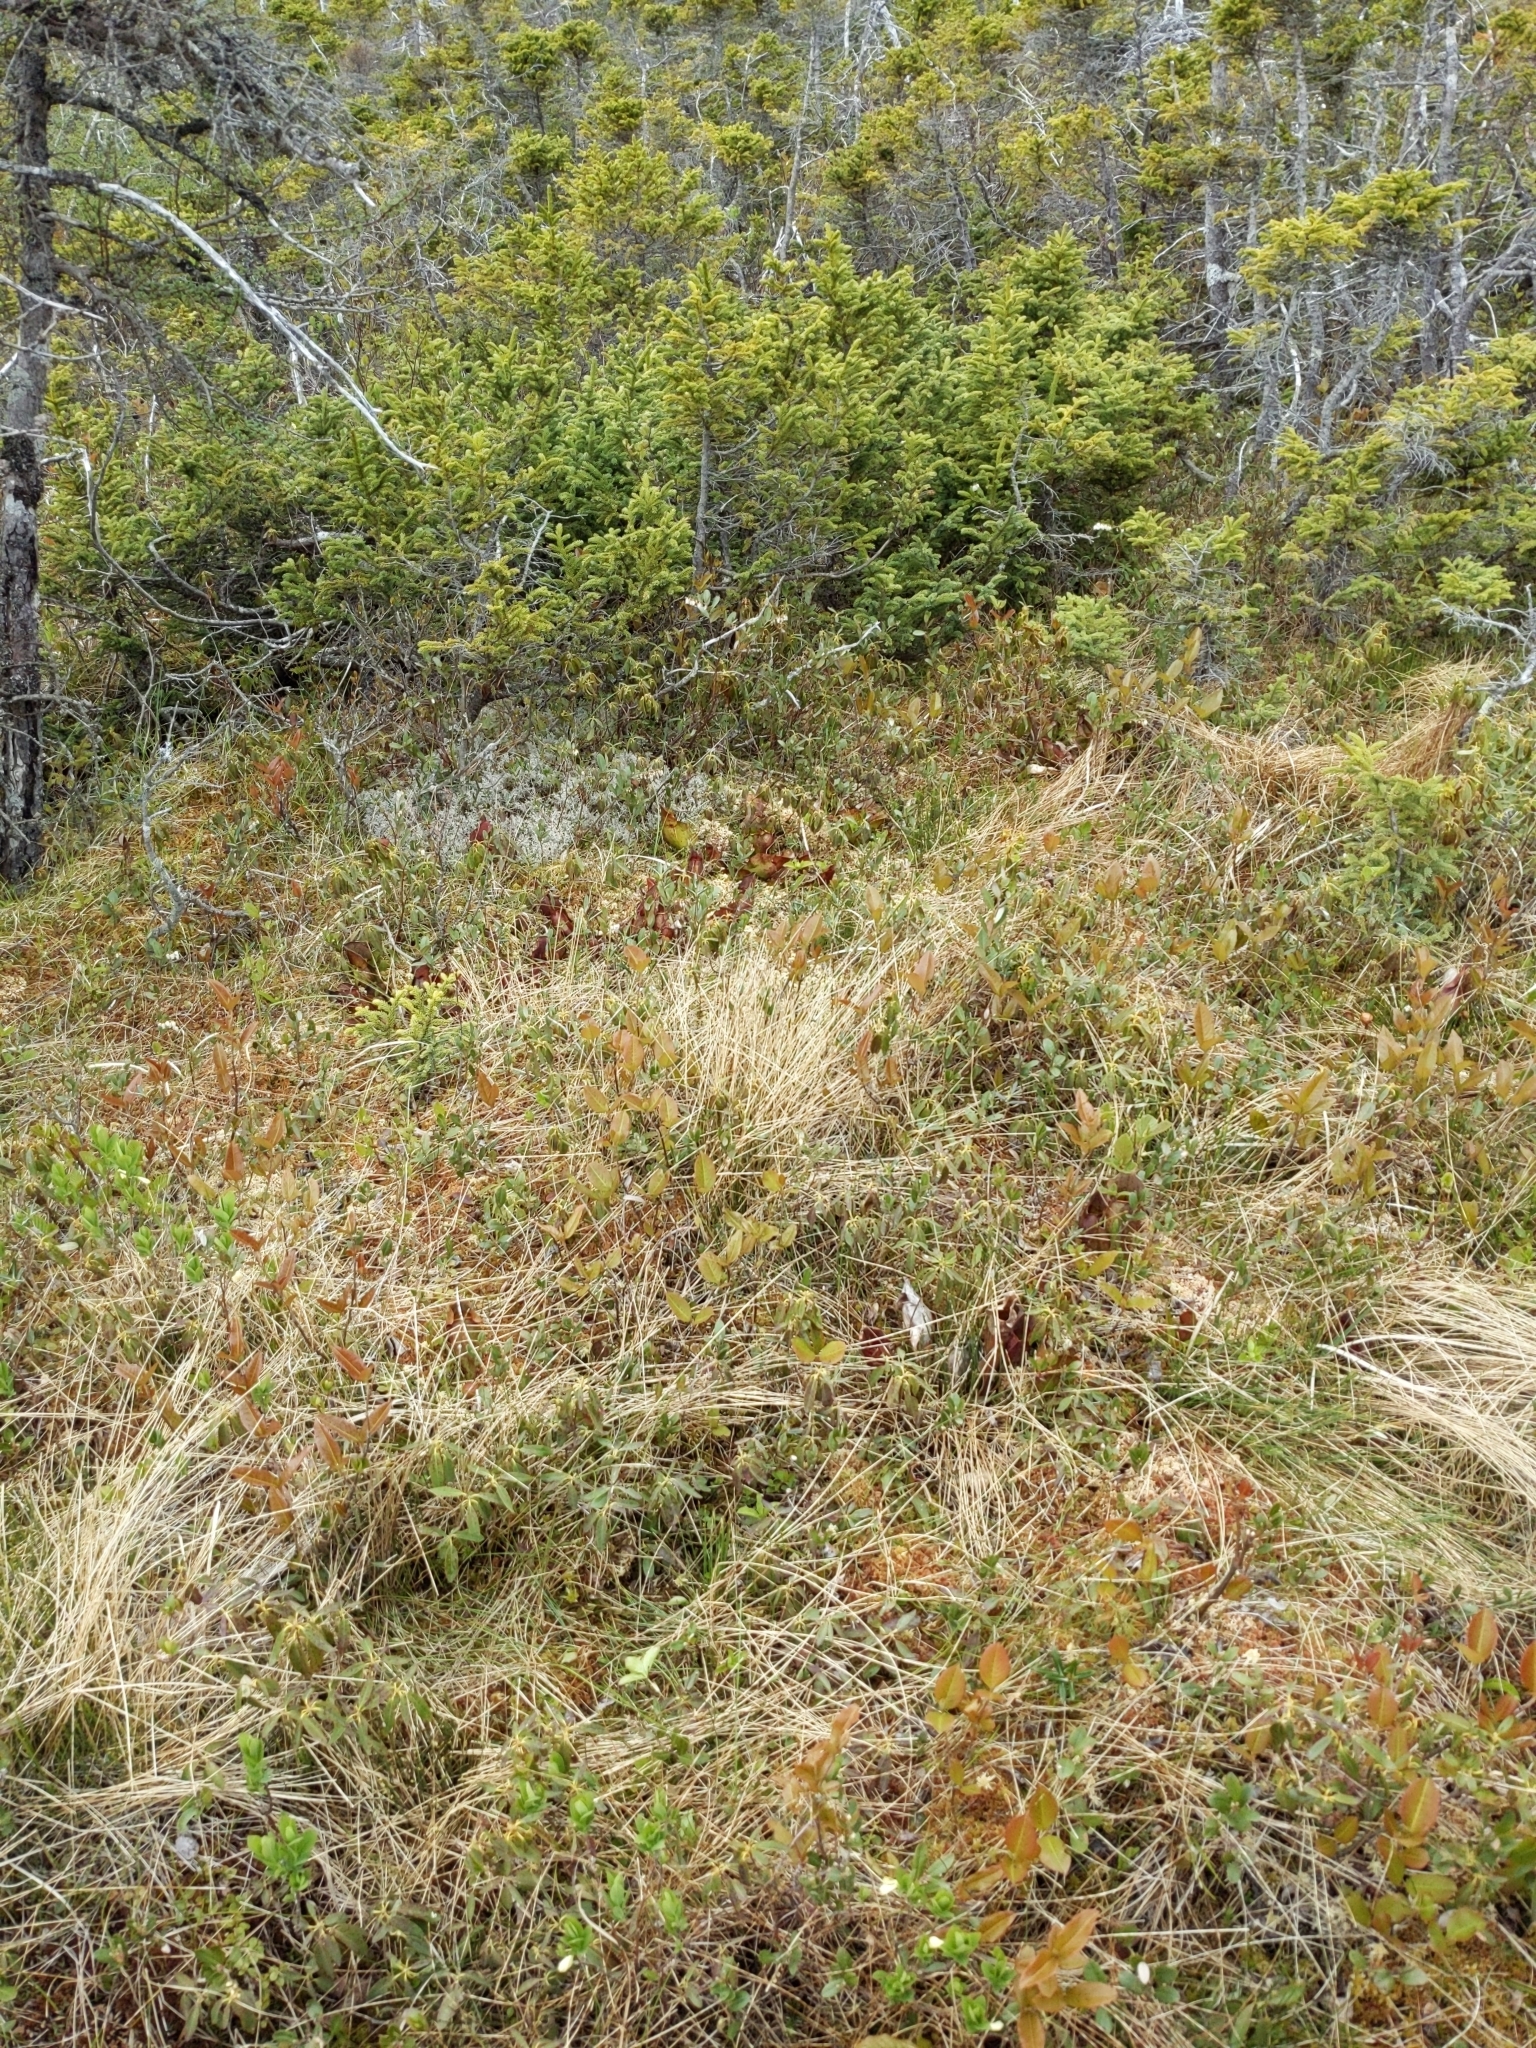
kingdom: Plantae
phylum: Tracheophyta
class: Magnoliopsida
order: Dipsacales
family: Caprifoliaceae
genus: Lonicera
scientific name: Lonicera villosa
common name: Mountain fly-honeysuckle
